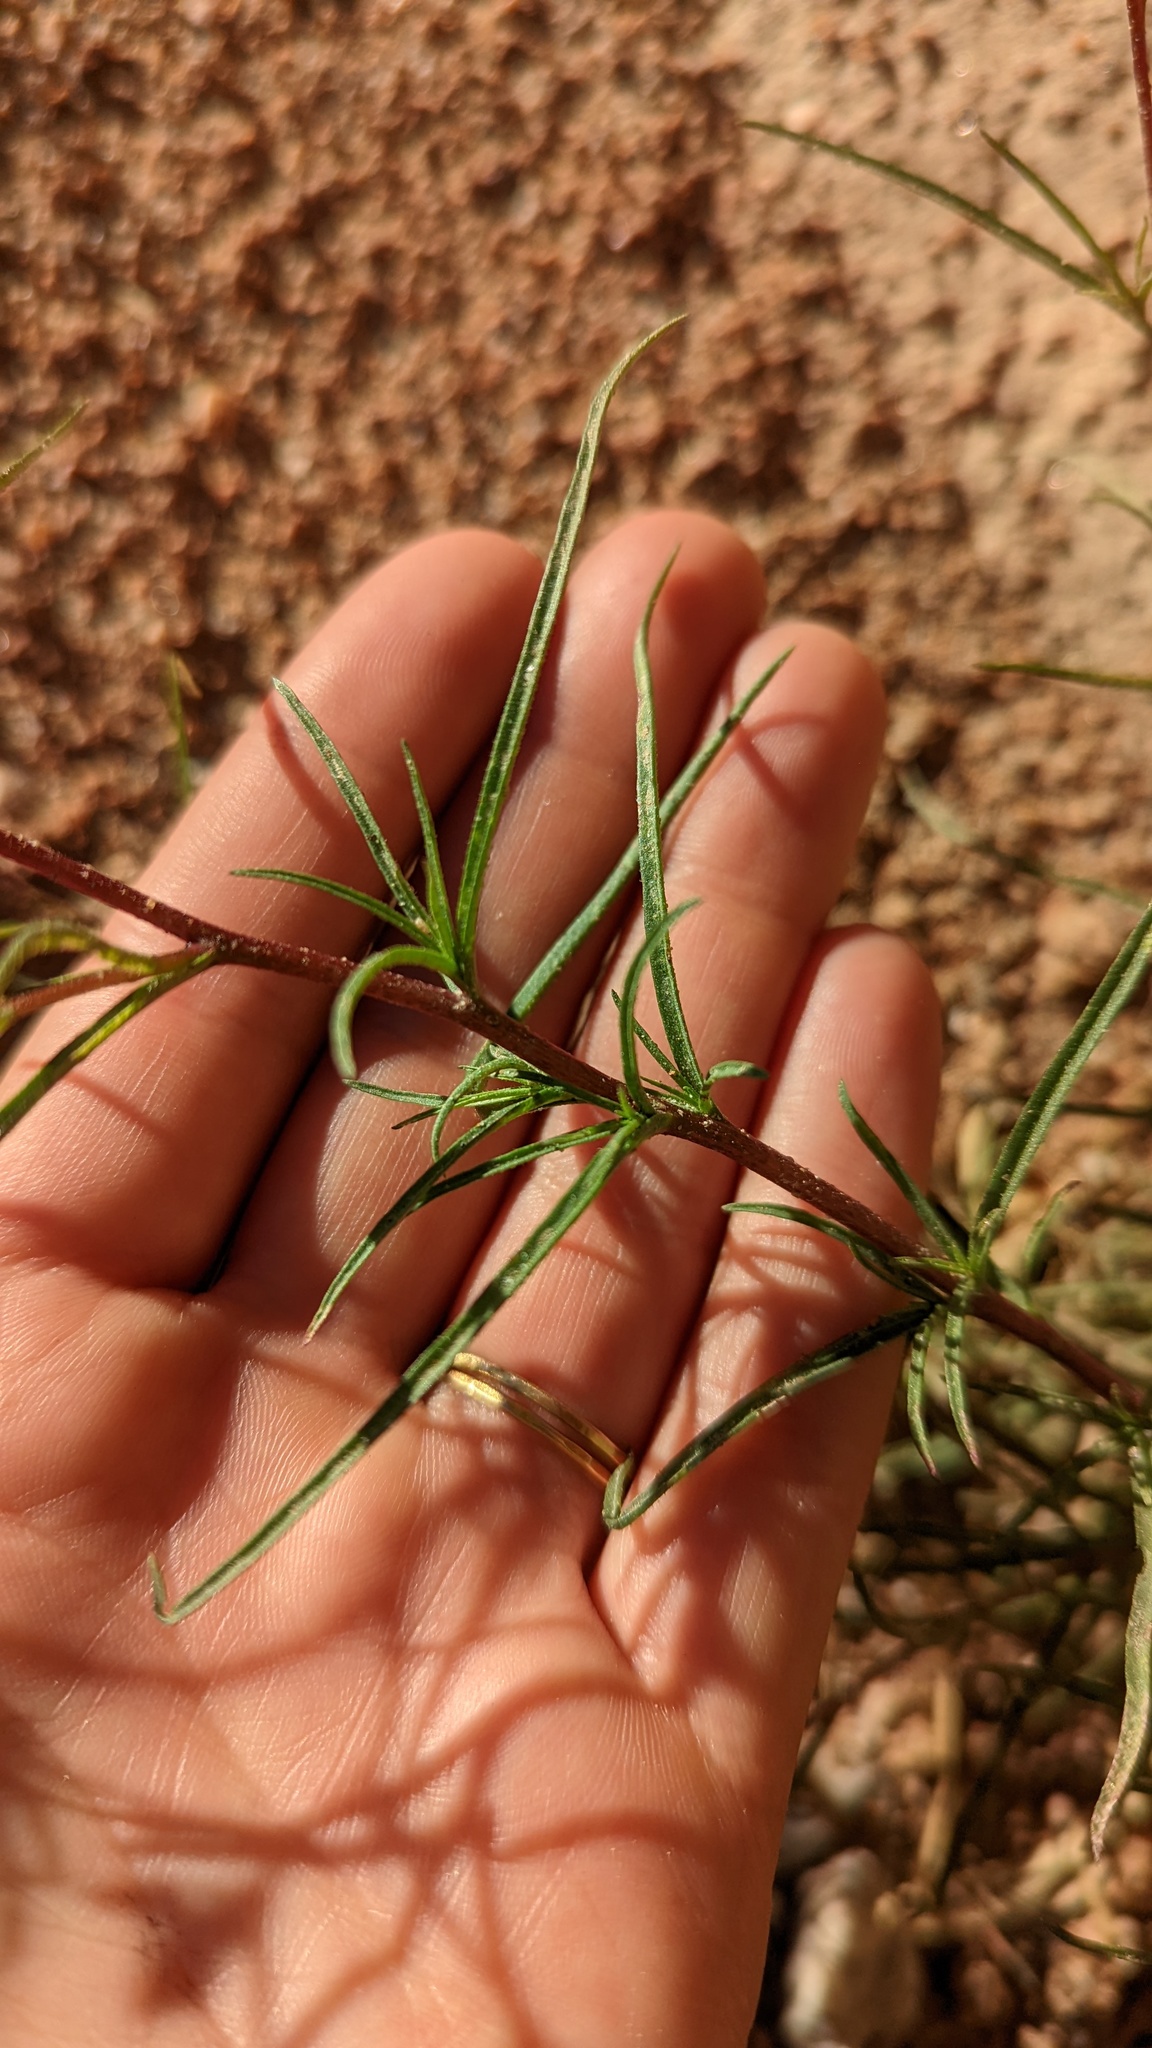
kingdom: Plantae
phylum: Tracheophyta
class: Magnoliopsida
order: Asterales
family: Asteraceae
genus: Malperia
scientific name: Malperia tenuis
